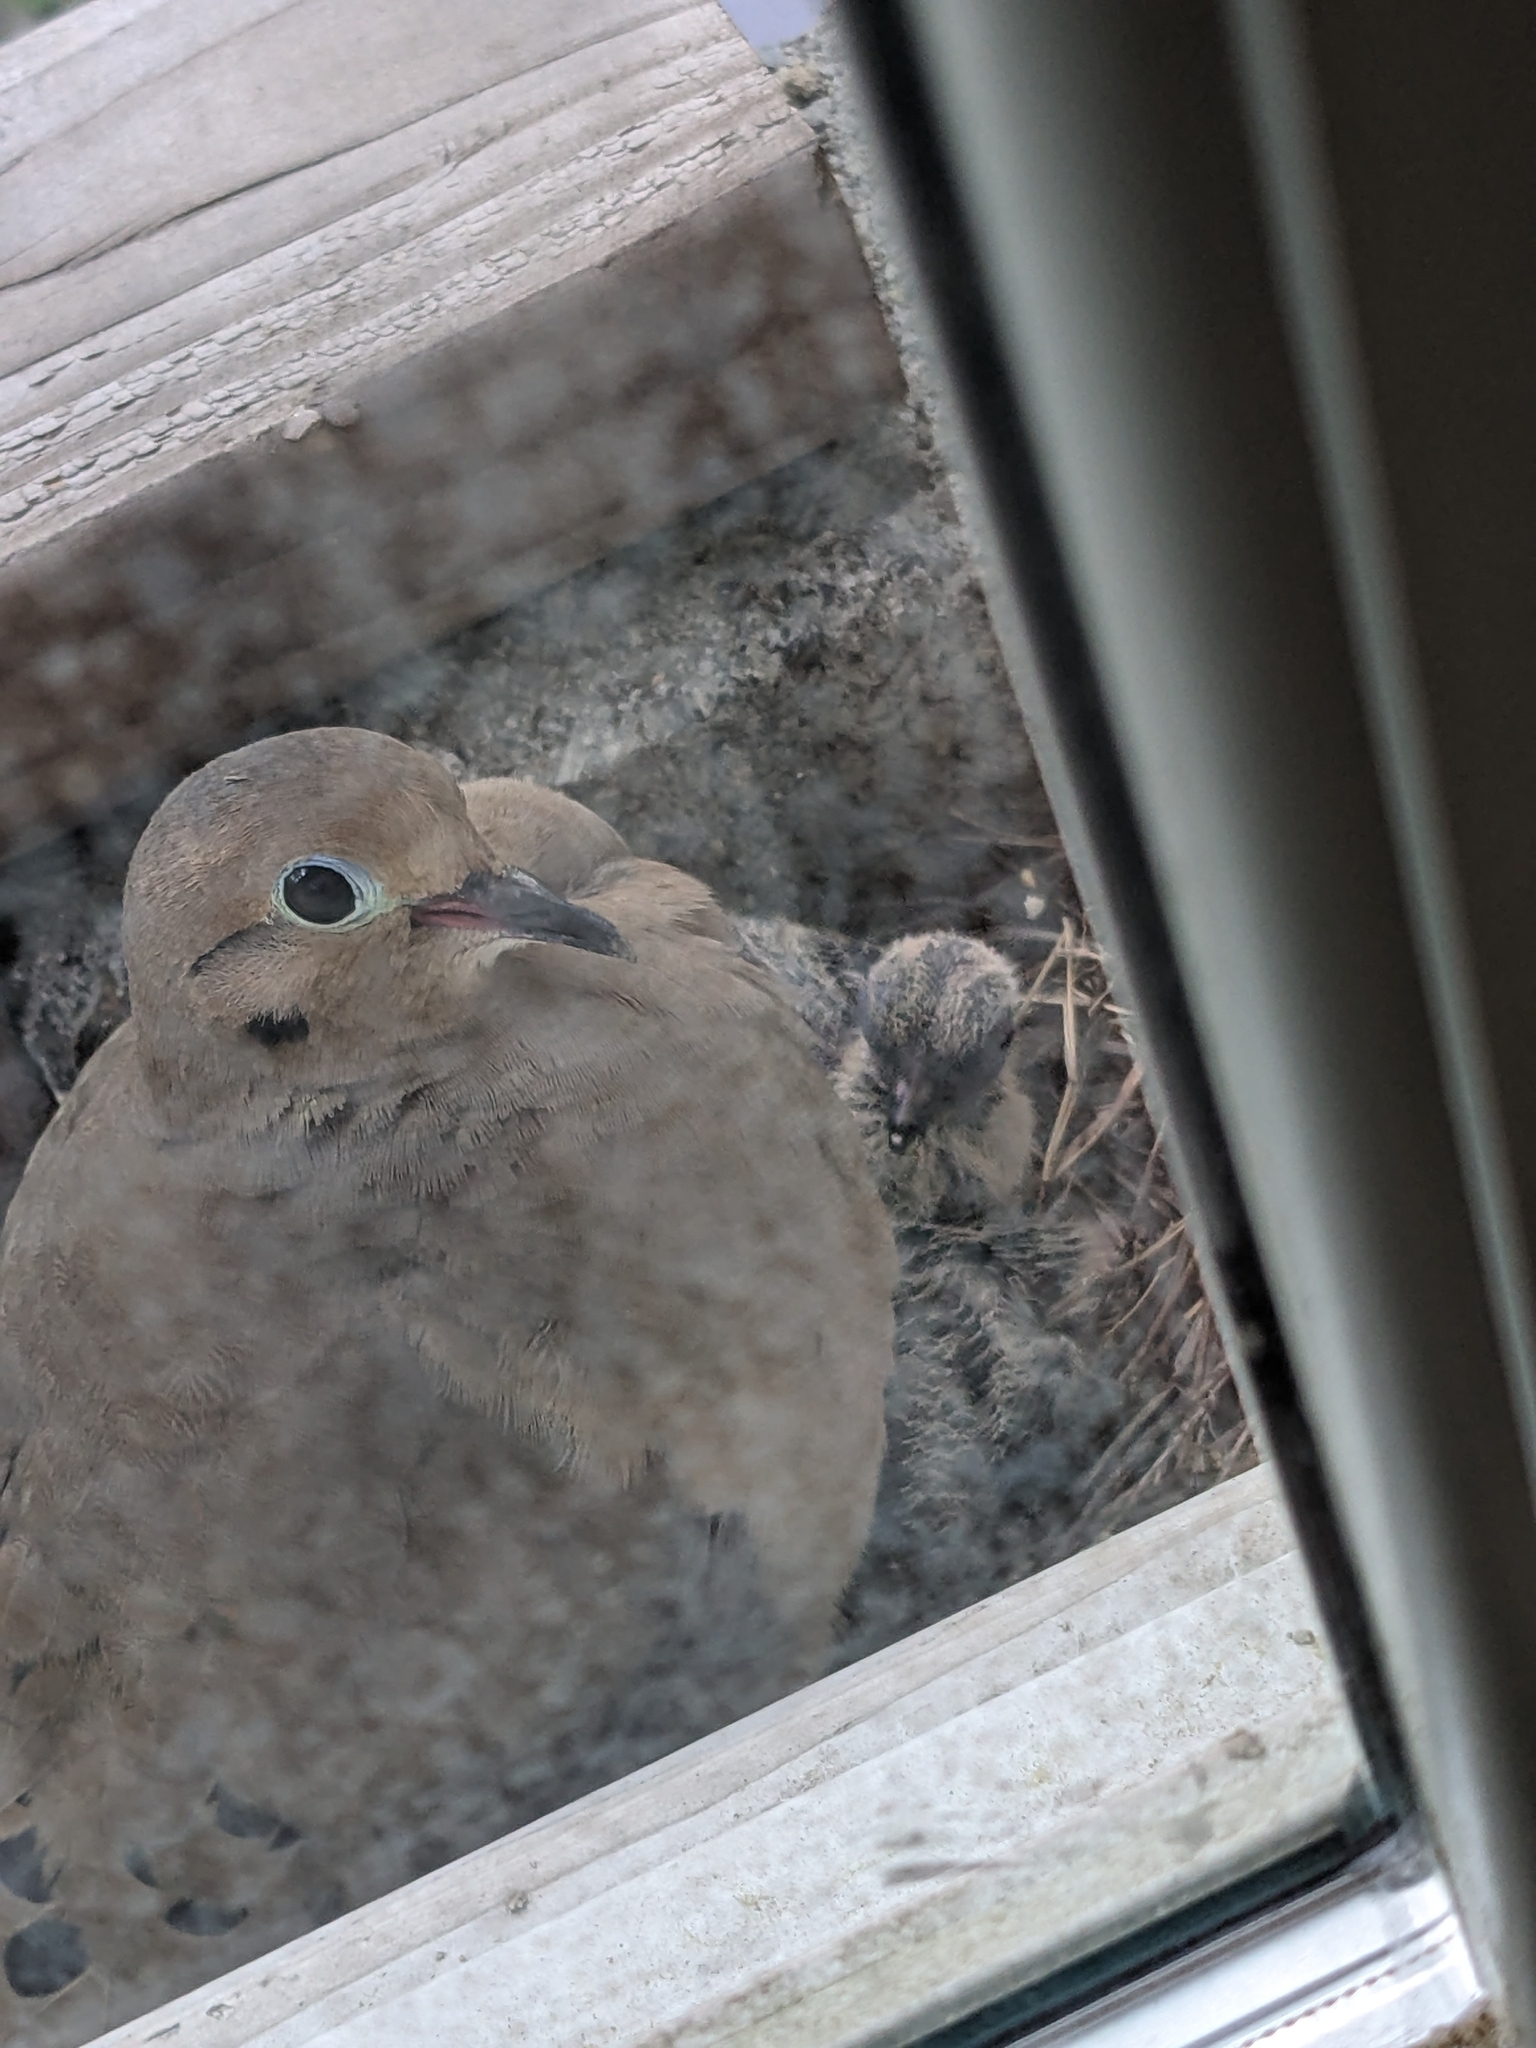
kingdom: Animalia
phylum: Chordata
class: Aves
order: Columbiformes
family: Columbidae
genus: Zenaida
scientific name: Zenaida macroura
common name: Mourning dove
